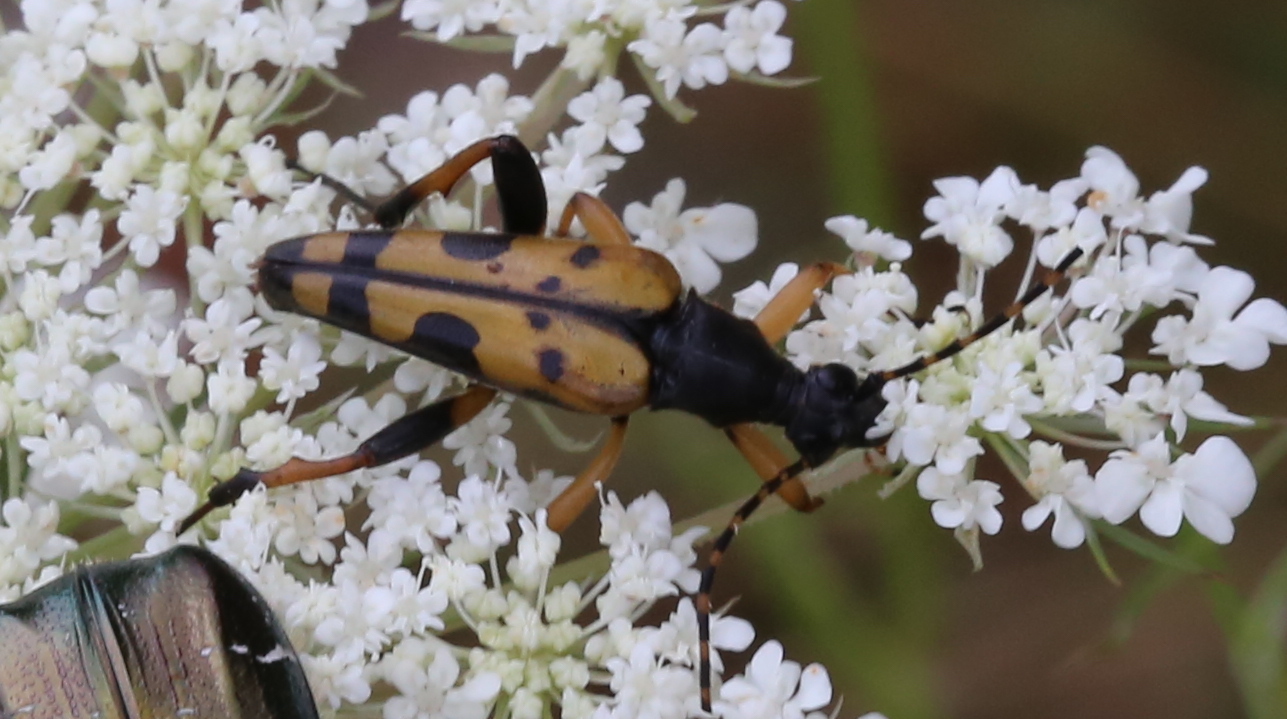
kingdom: Animalia
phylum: Arthropoda
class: Insecta
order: Coleoptera
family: Cerambycidae
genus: Rutpela
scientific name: Rutpela maculata
